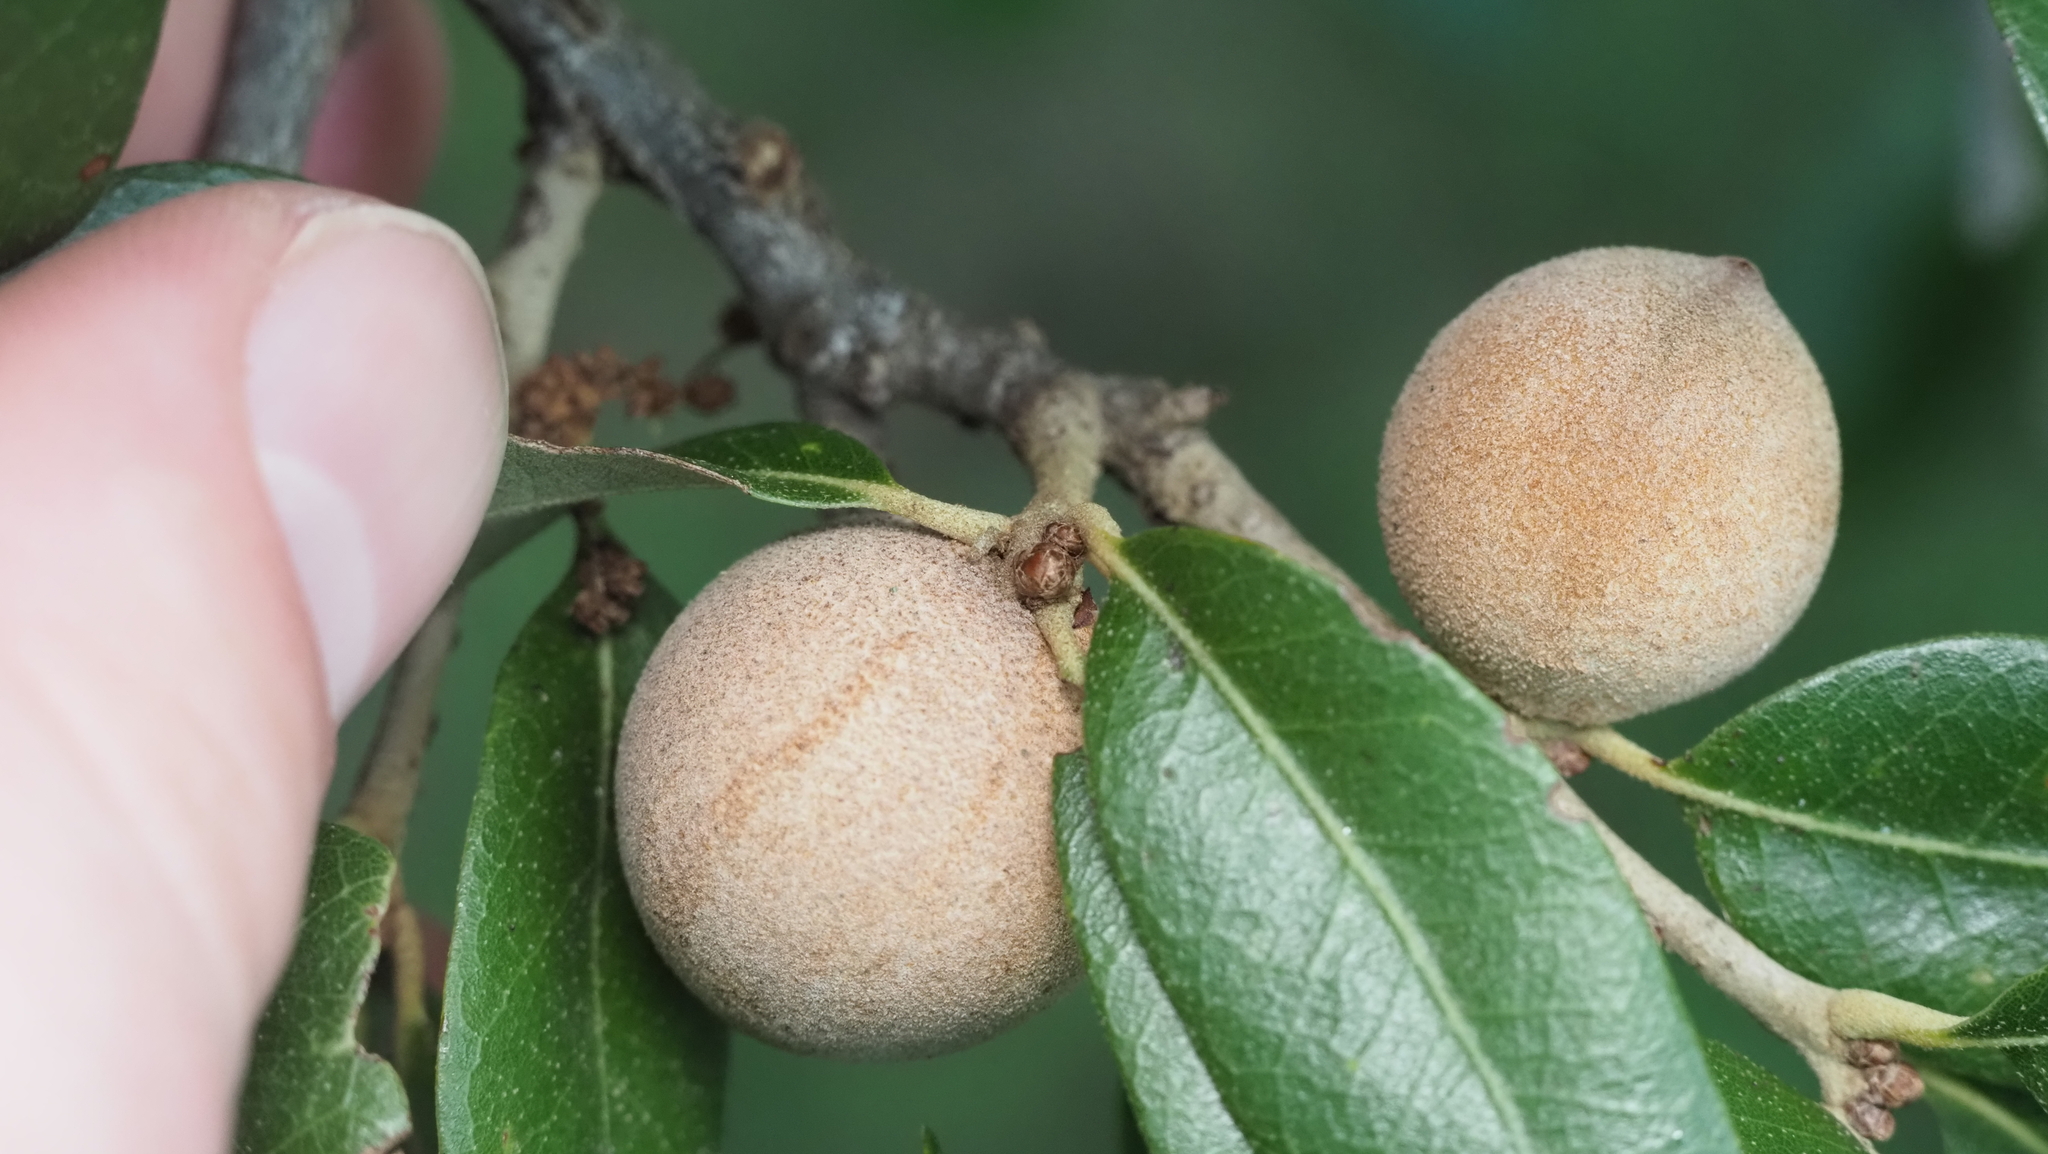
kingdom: Animalia
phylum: Arthropoda
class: Insecta
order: Hymenoptera
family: Cynipidae
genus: Disholcaspis
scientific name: Disholcaspis
